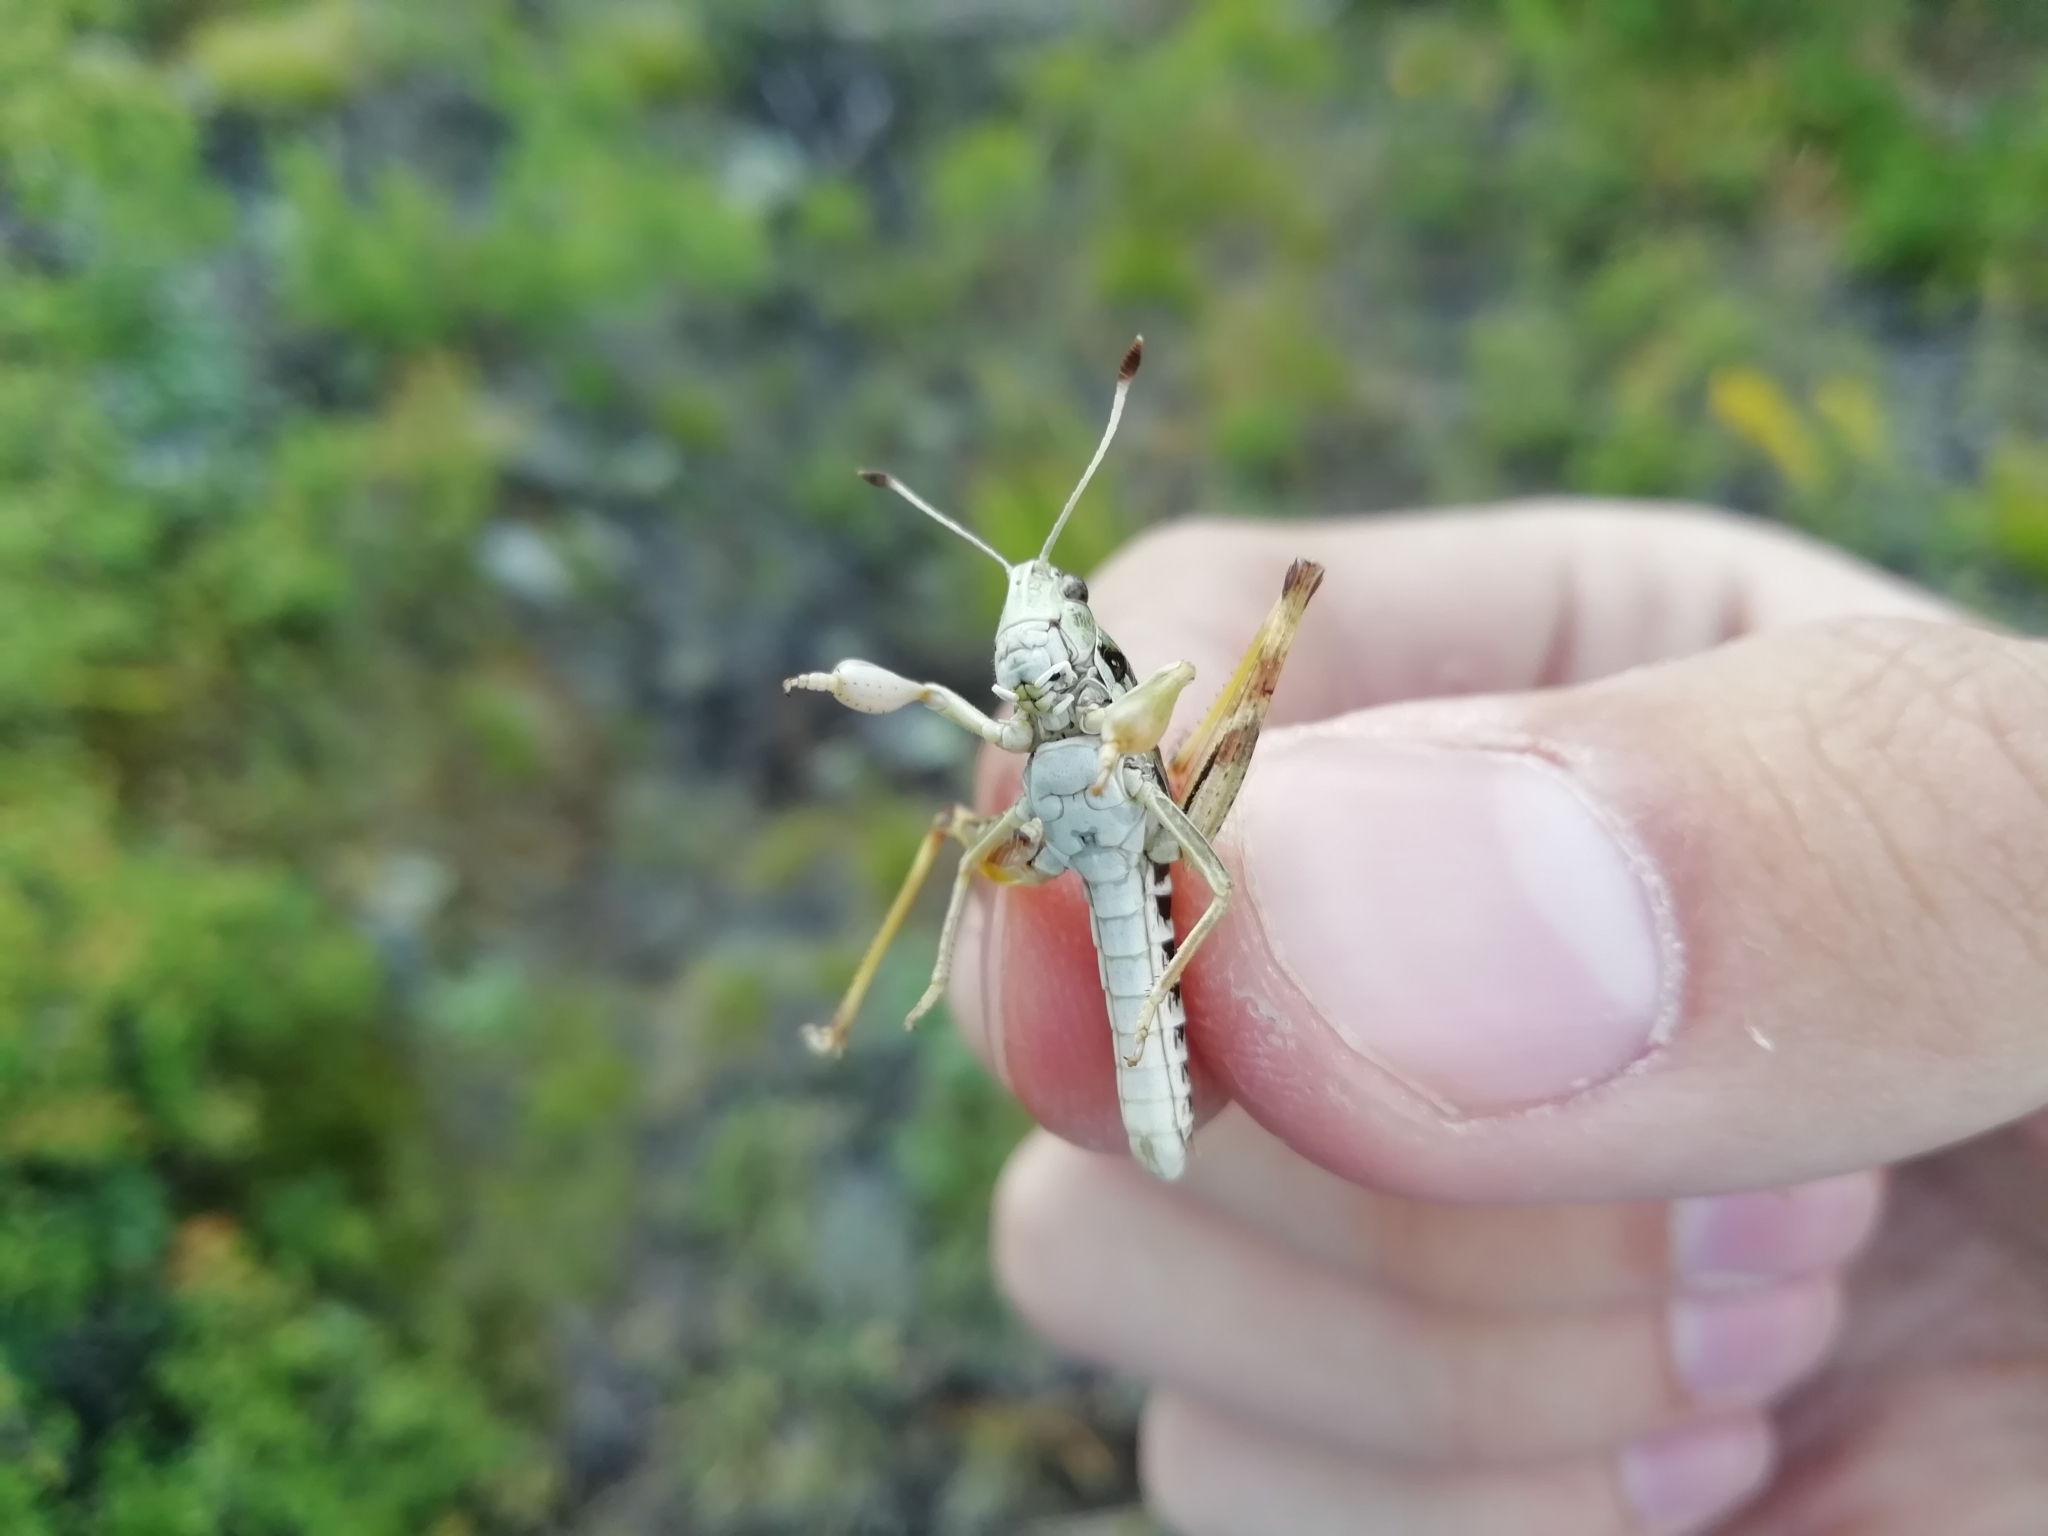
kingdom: Animalia
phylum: Arthropoda
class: Insecta
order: Orthoptera
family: Acrididae
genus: Gomphocerus
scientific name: Gomphocerus sibiricus
